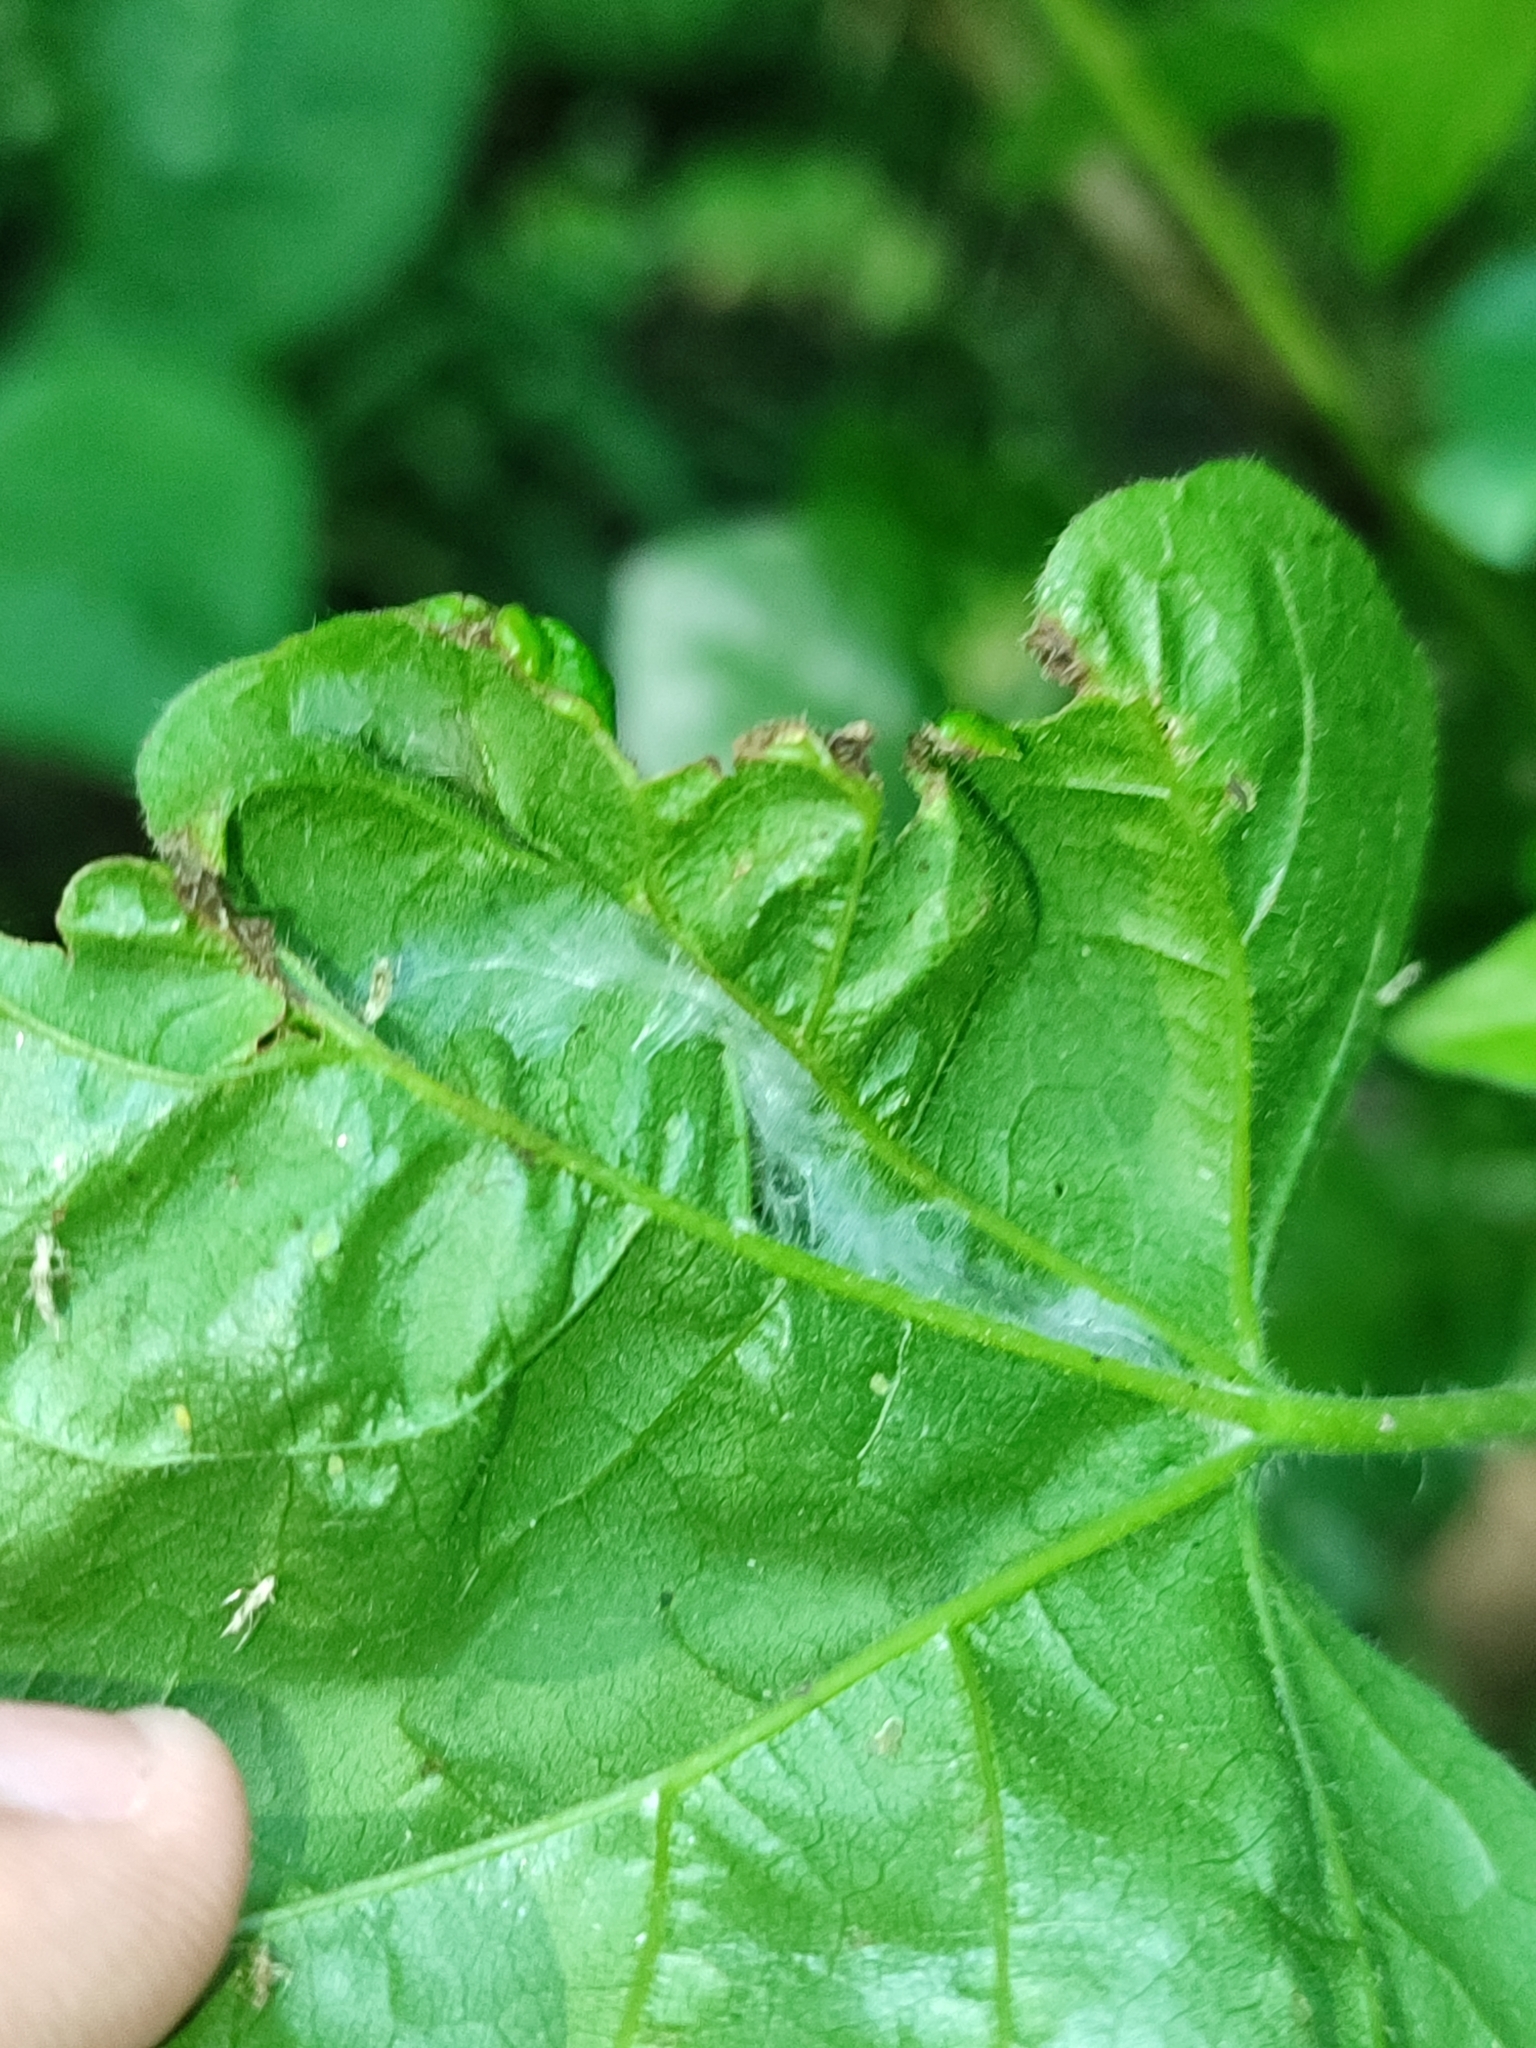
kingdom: Plantae
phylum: Tracheophyta
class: Magnoliopsida
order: Sapindales
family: Sapindaceae
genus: Acer
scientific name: Acer campestre
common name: Field maple
